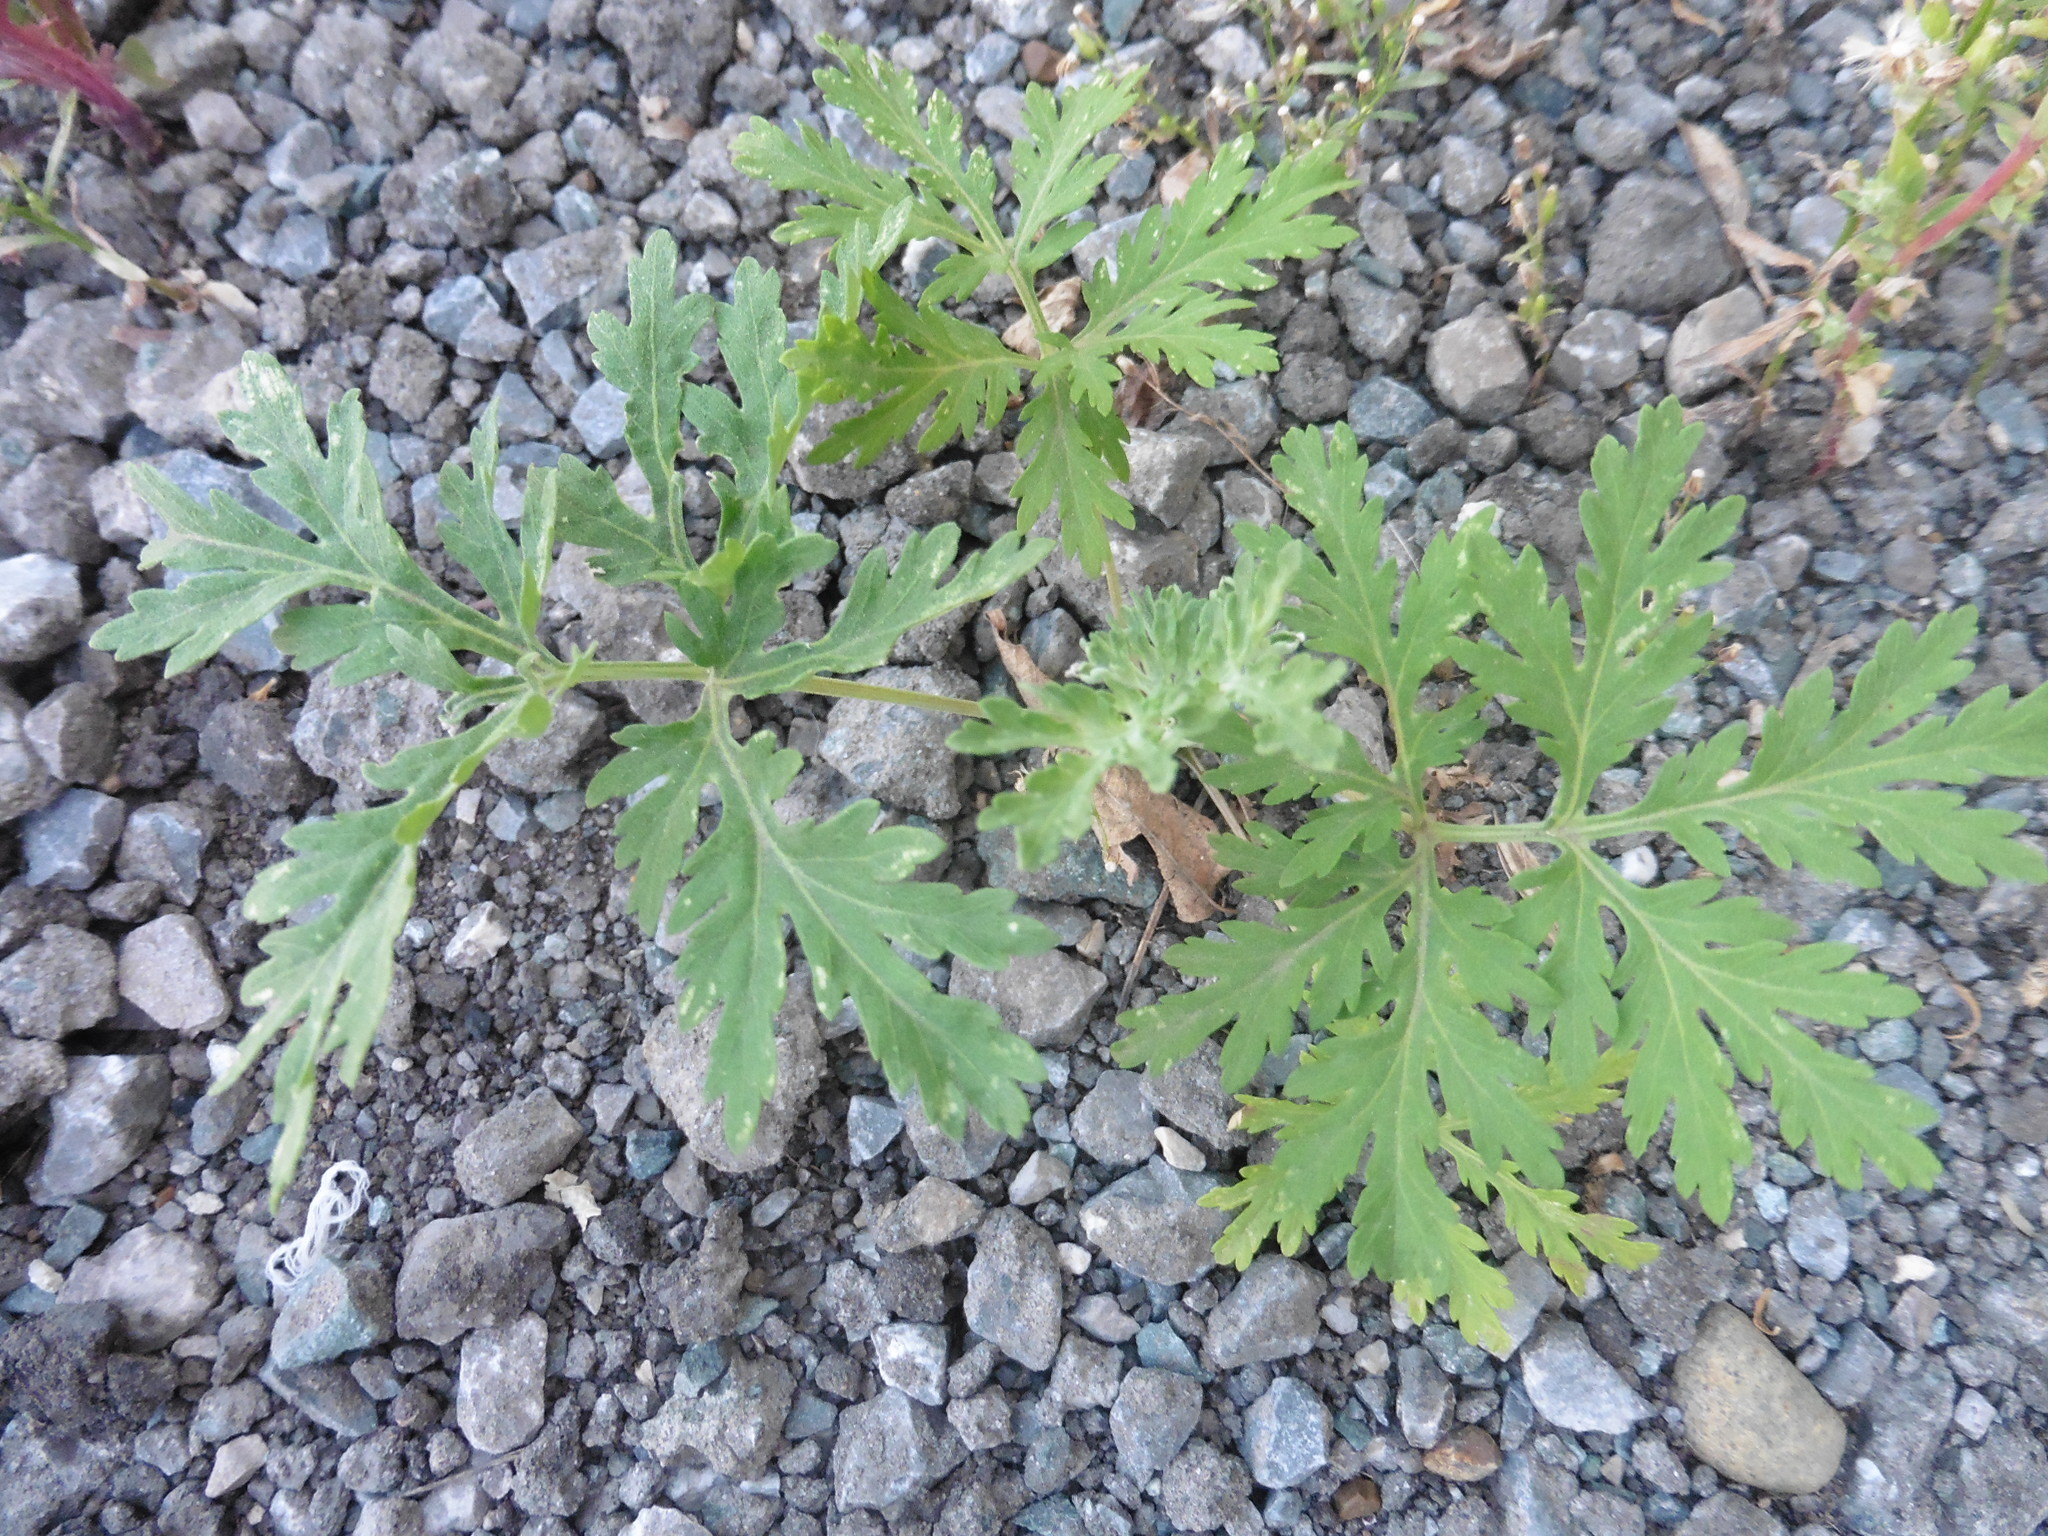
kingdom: Plantae
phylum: Tracheophyta
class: Magnoliopsida
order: Asterales
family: Asteraceae
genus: Artemisia
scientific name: Artemisia sieversiana
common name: Sieversian wormwood
